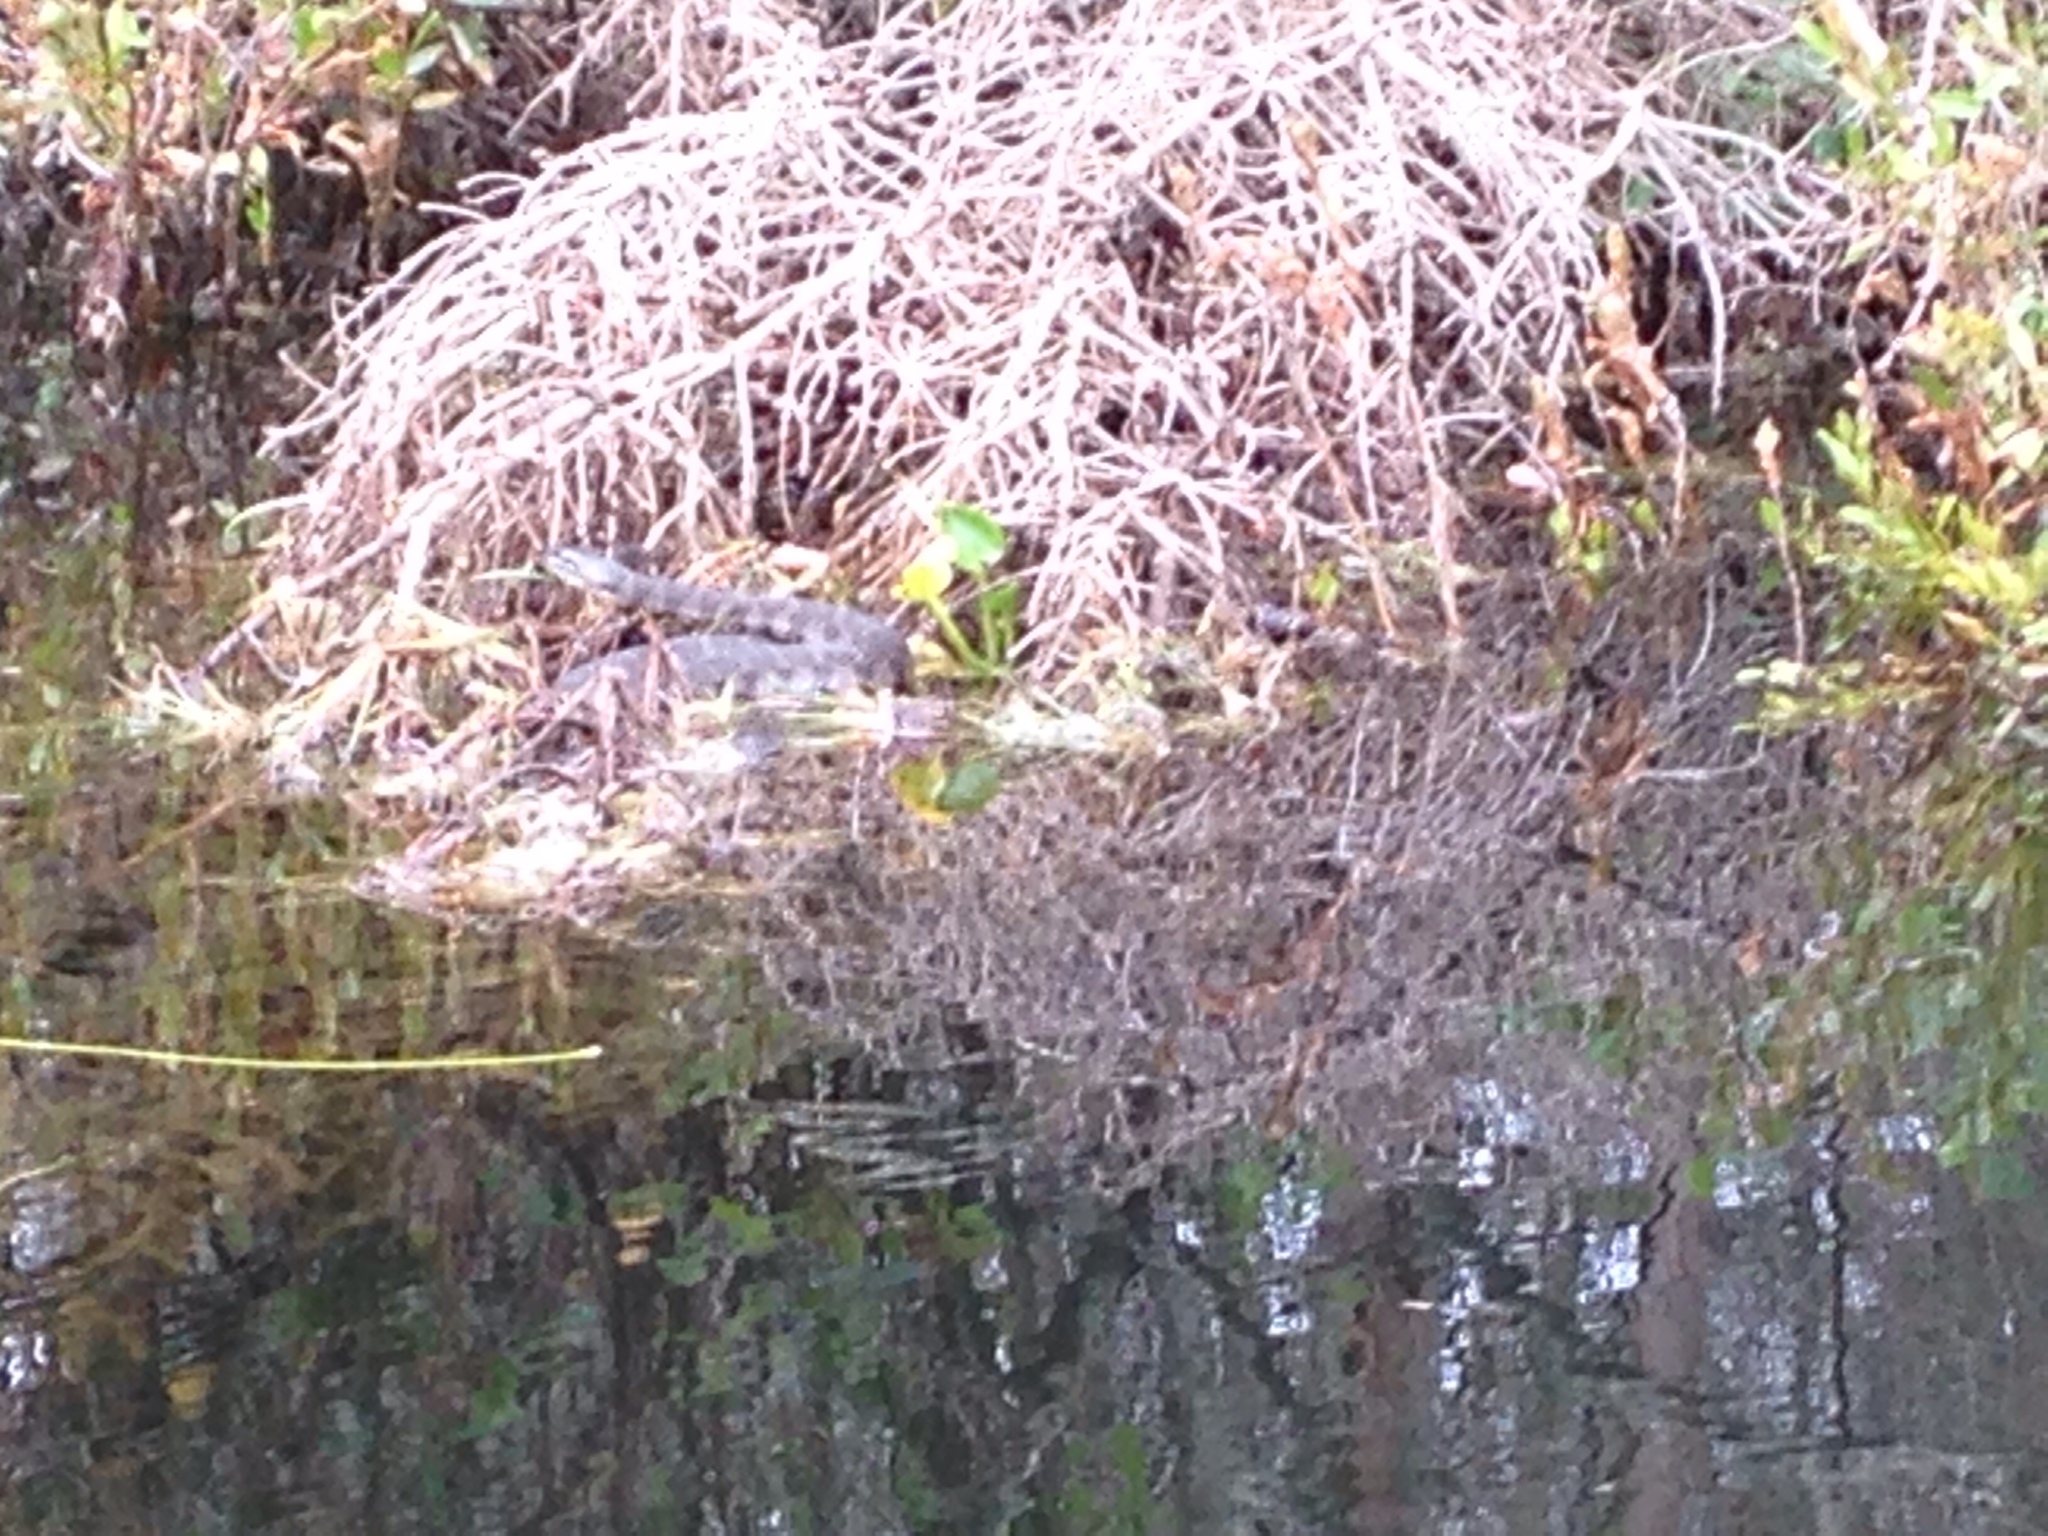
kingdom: Animalia
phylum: Chordata
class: Squamata
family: Colubridae
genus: Nerodia
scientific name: Nerodia sipedon
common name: Northern water snake
